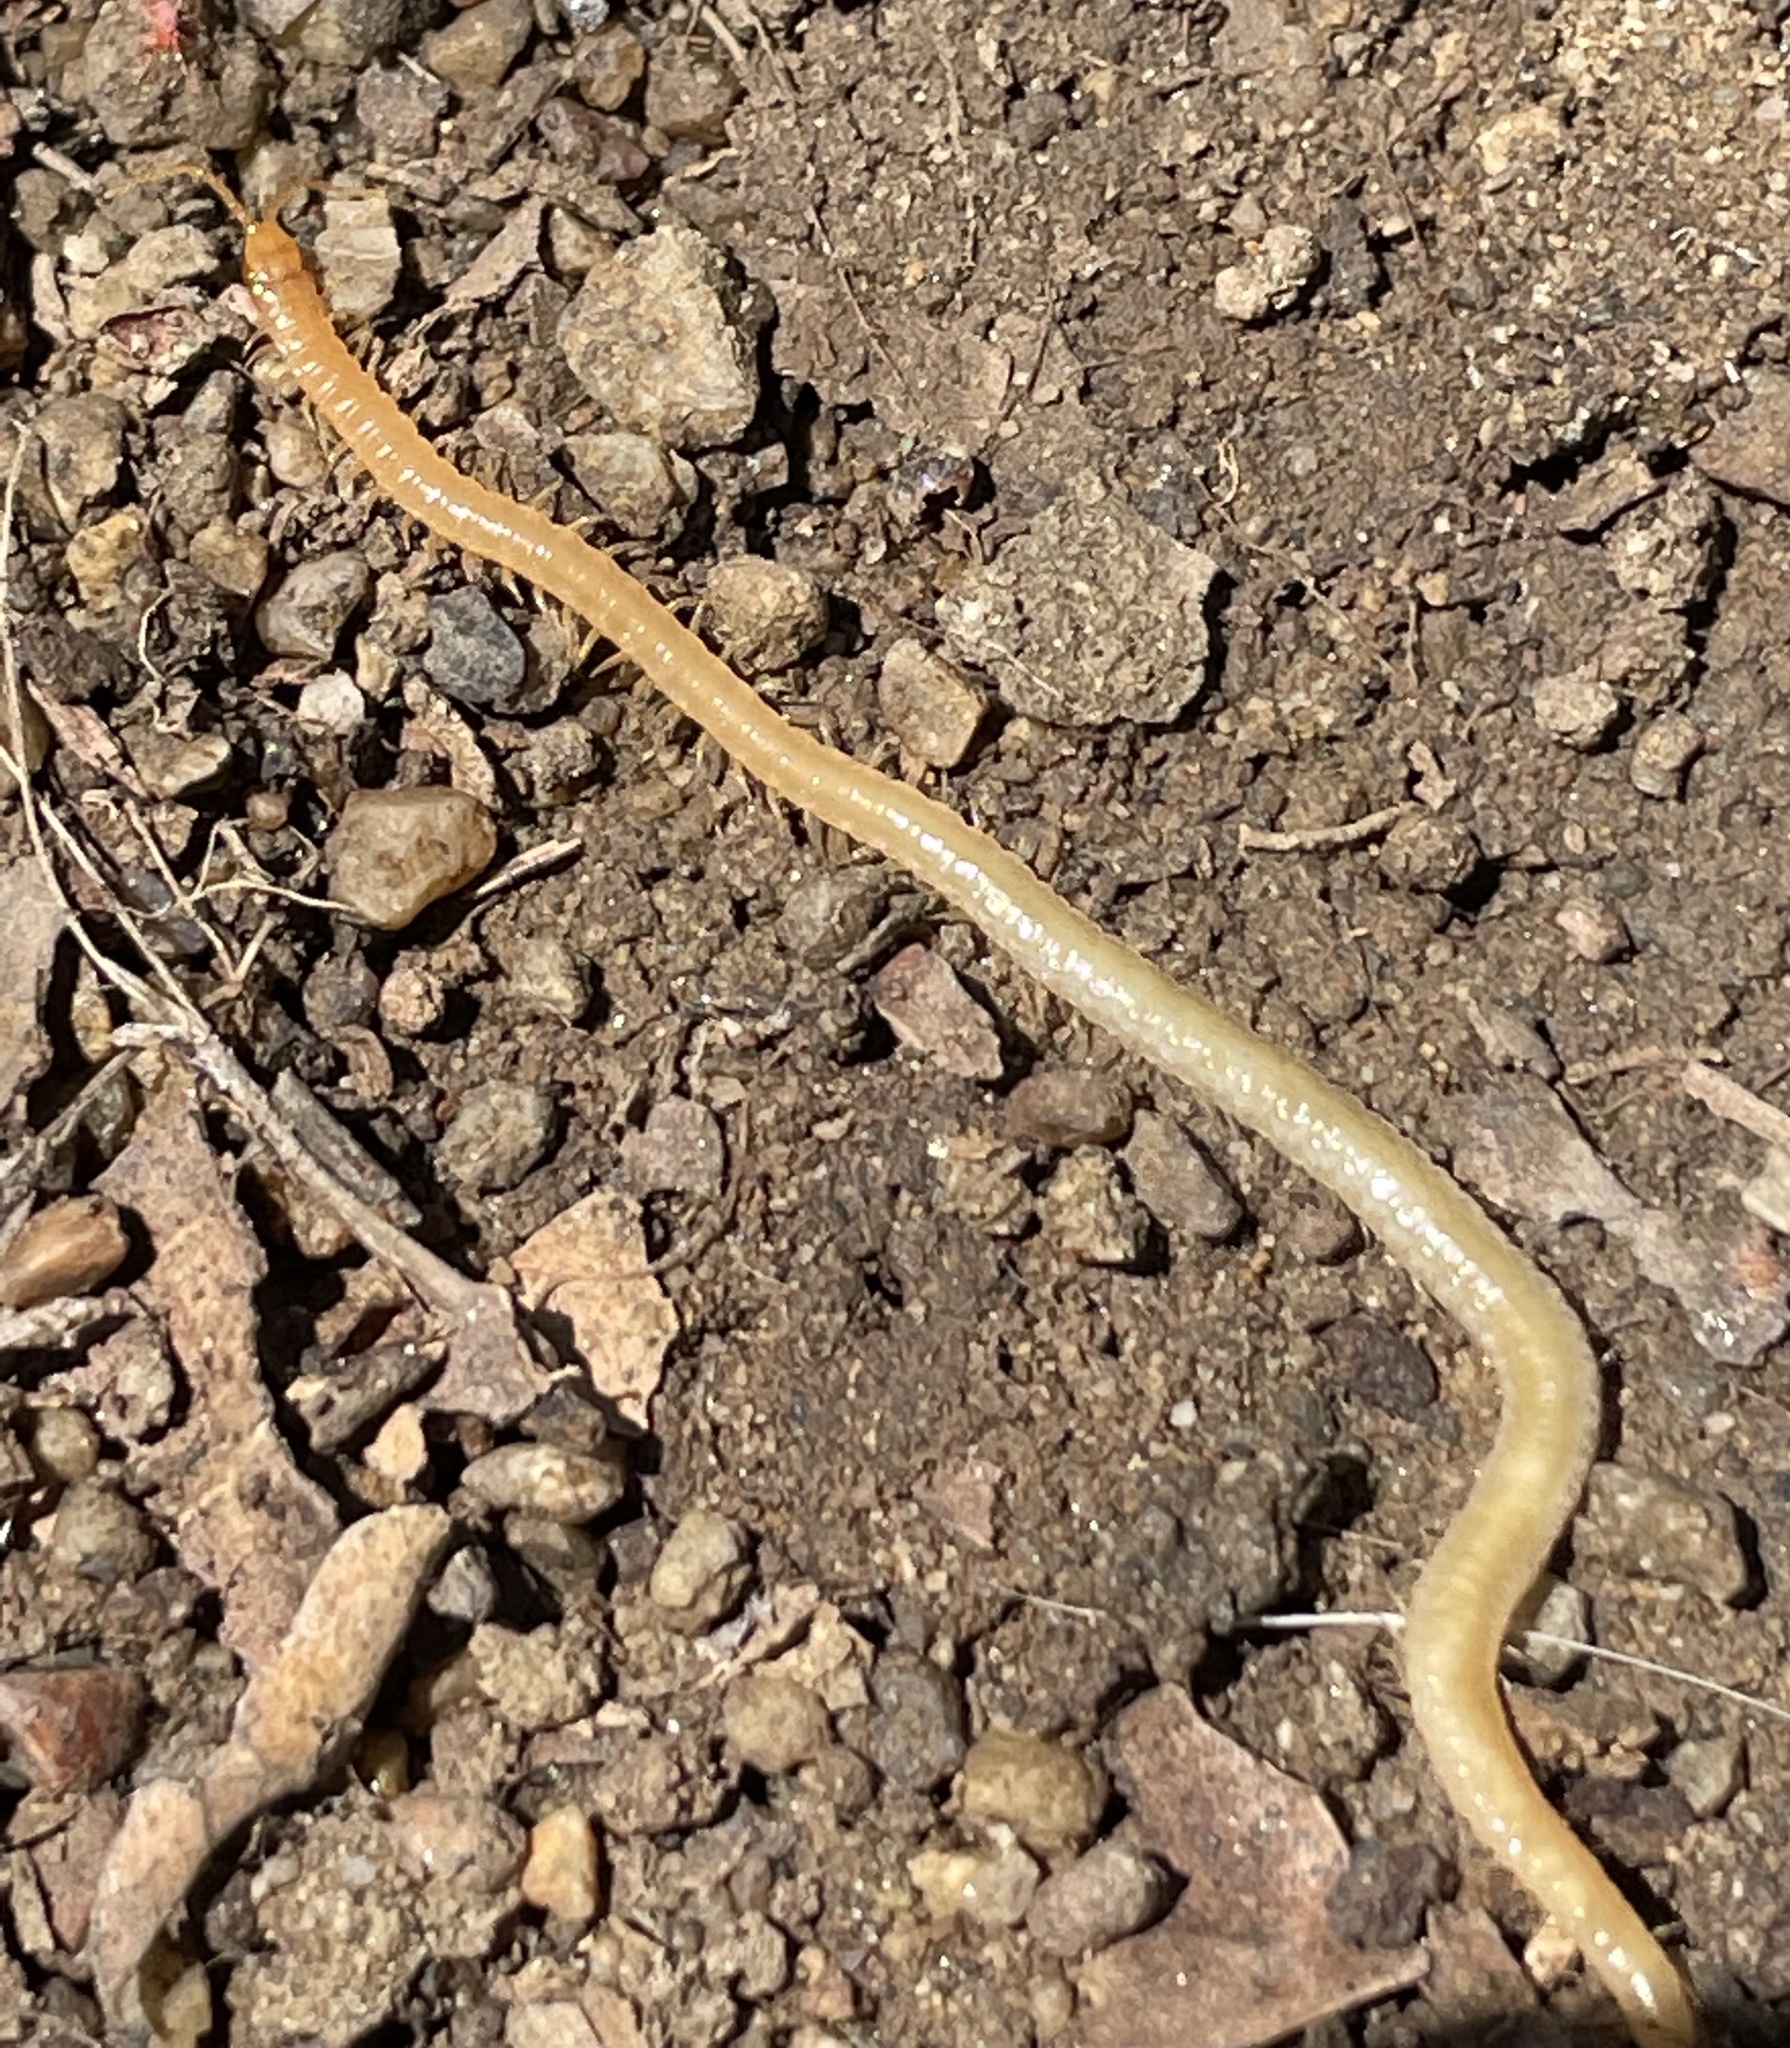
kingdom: Animalia
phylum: Arthropoda
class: Chilopoda
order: Geophilomorpha
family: Geophilidae
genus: Geophilus
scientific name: Geophilus regnans
